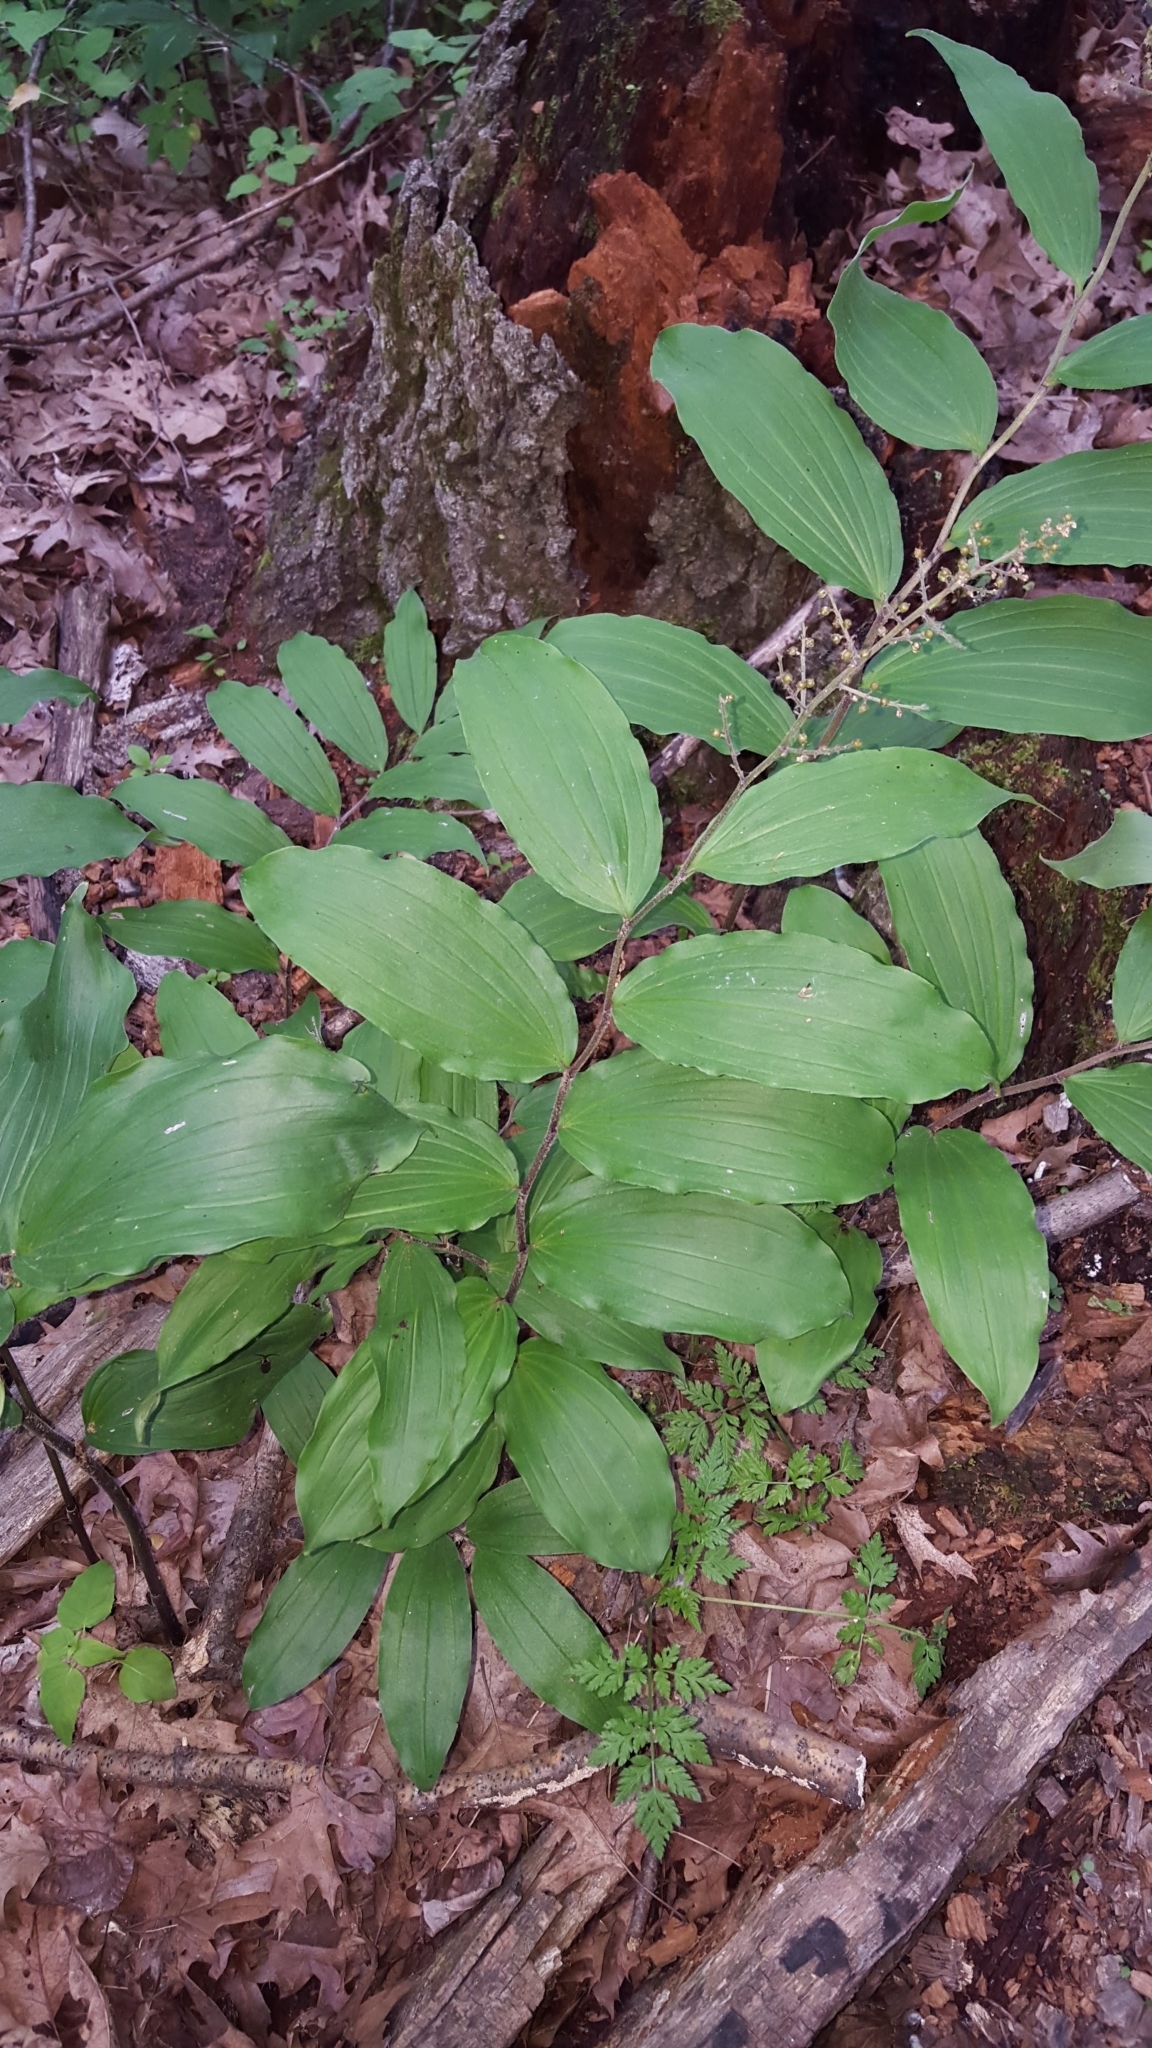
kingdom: Plantae
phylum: Tracheophyta
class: Liliopsida
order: Asparagales
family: Asparagaceae
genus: Maianthemum
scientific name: Maianthemum racemosum
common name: False spikenard
